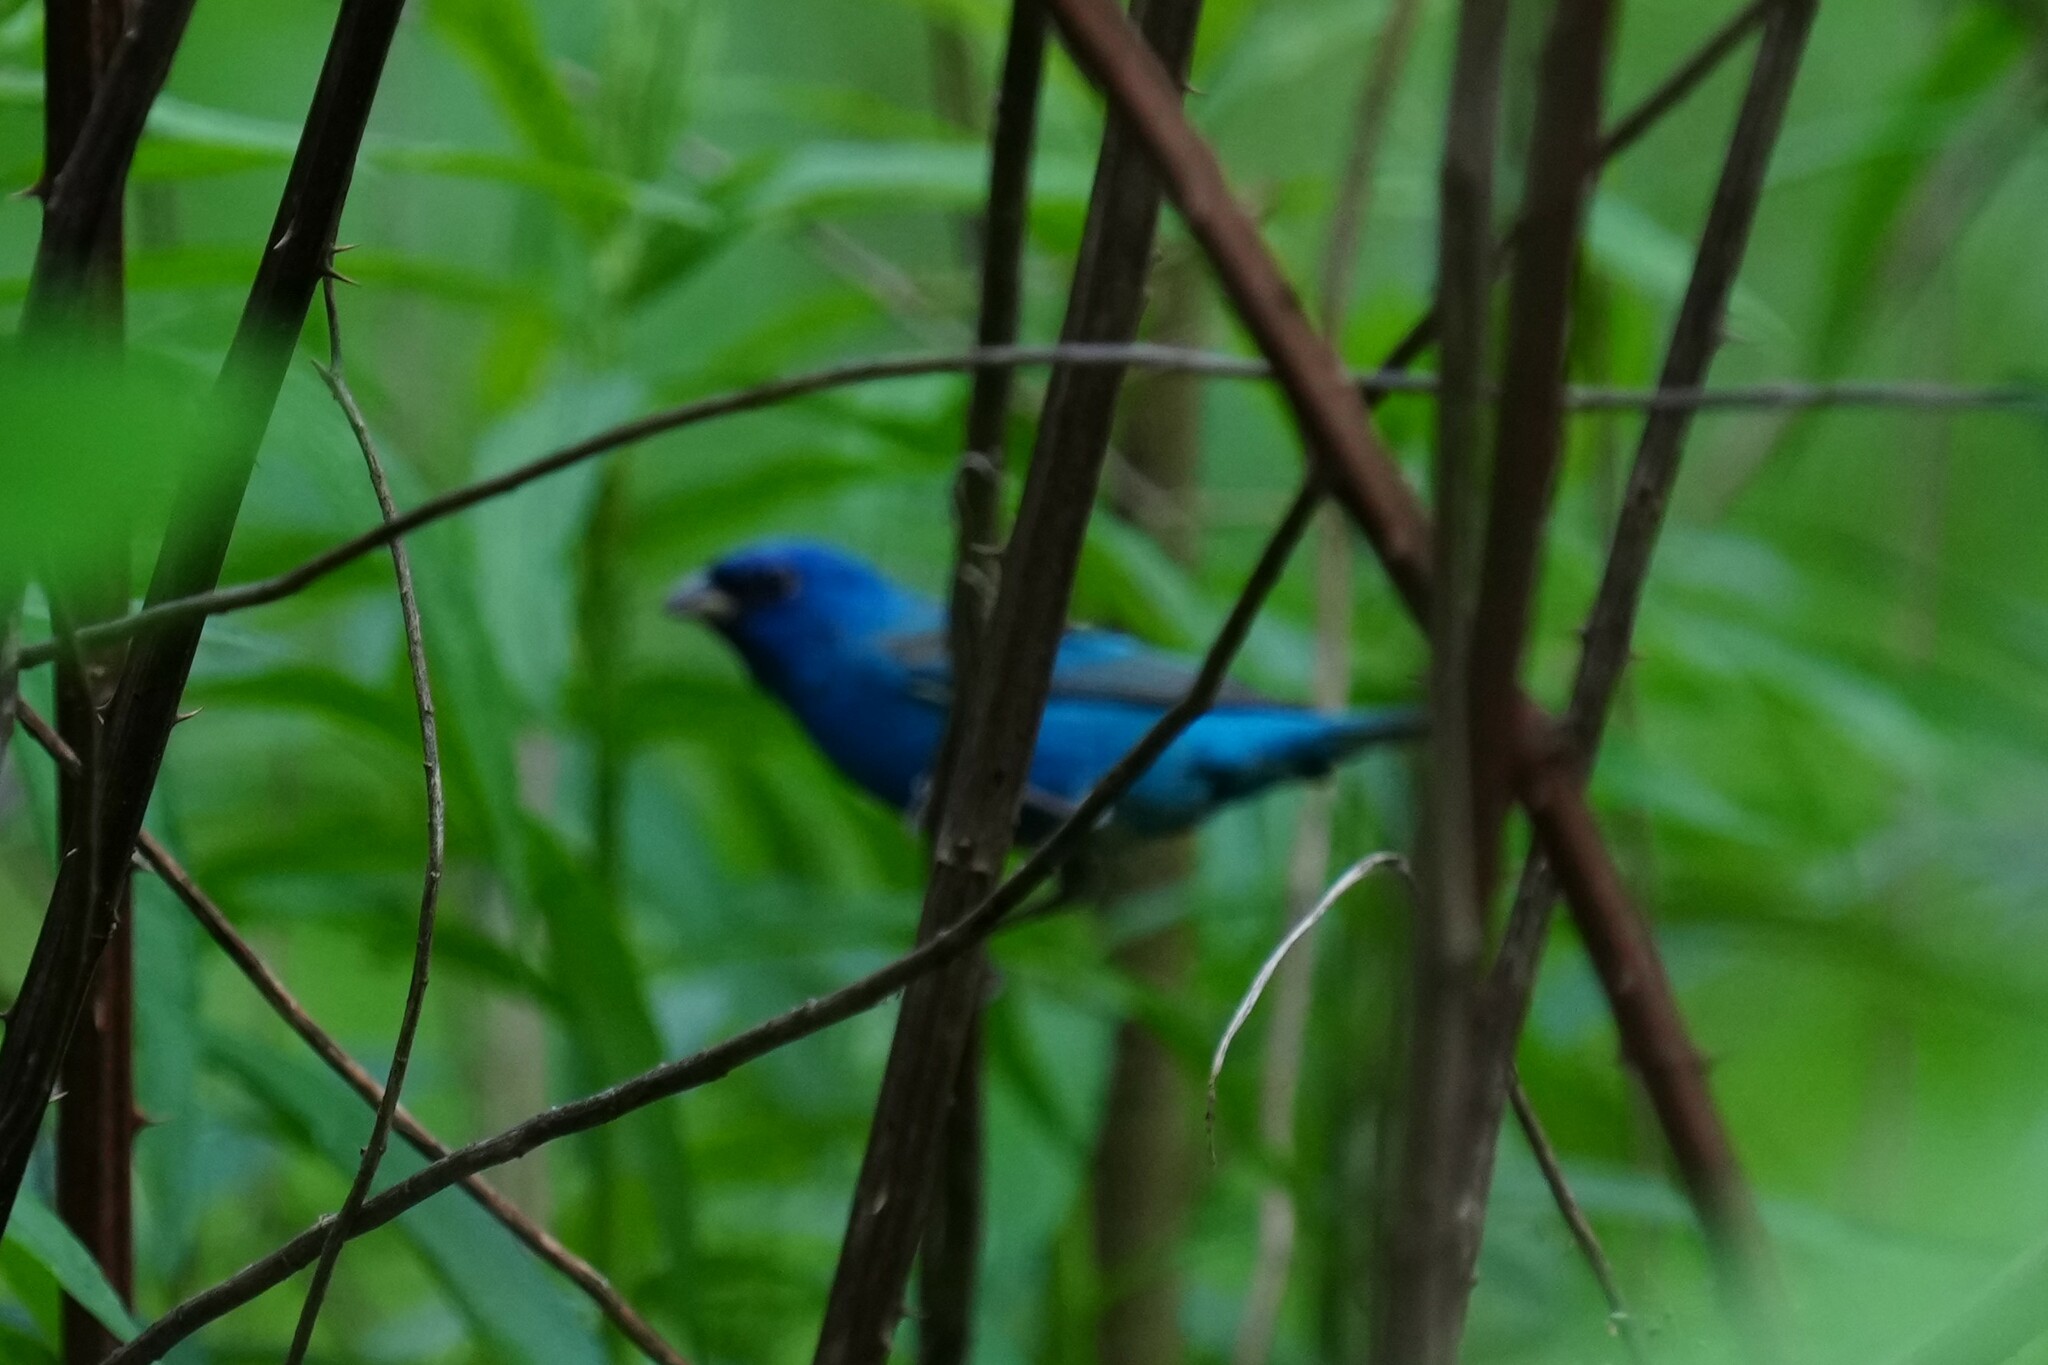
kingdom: Animalia
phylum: Chordata
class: Aves
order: Passeriformes
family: Cardinalidae
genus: Passerina
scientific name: Passerina cyanea
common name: Indigo bunting
